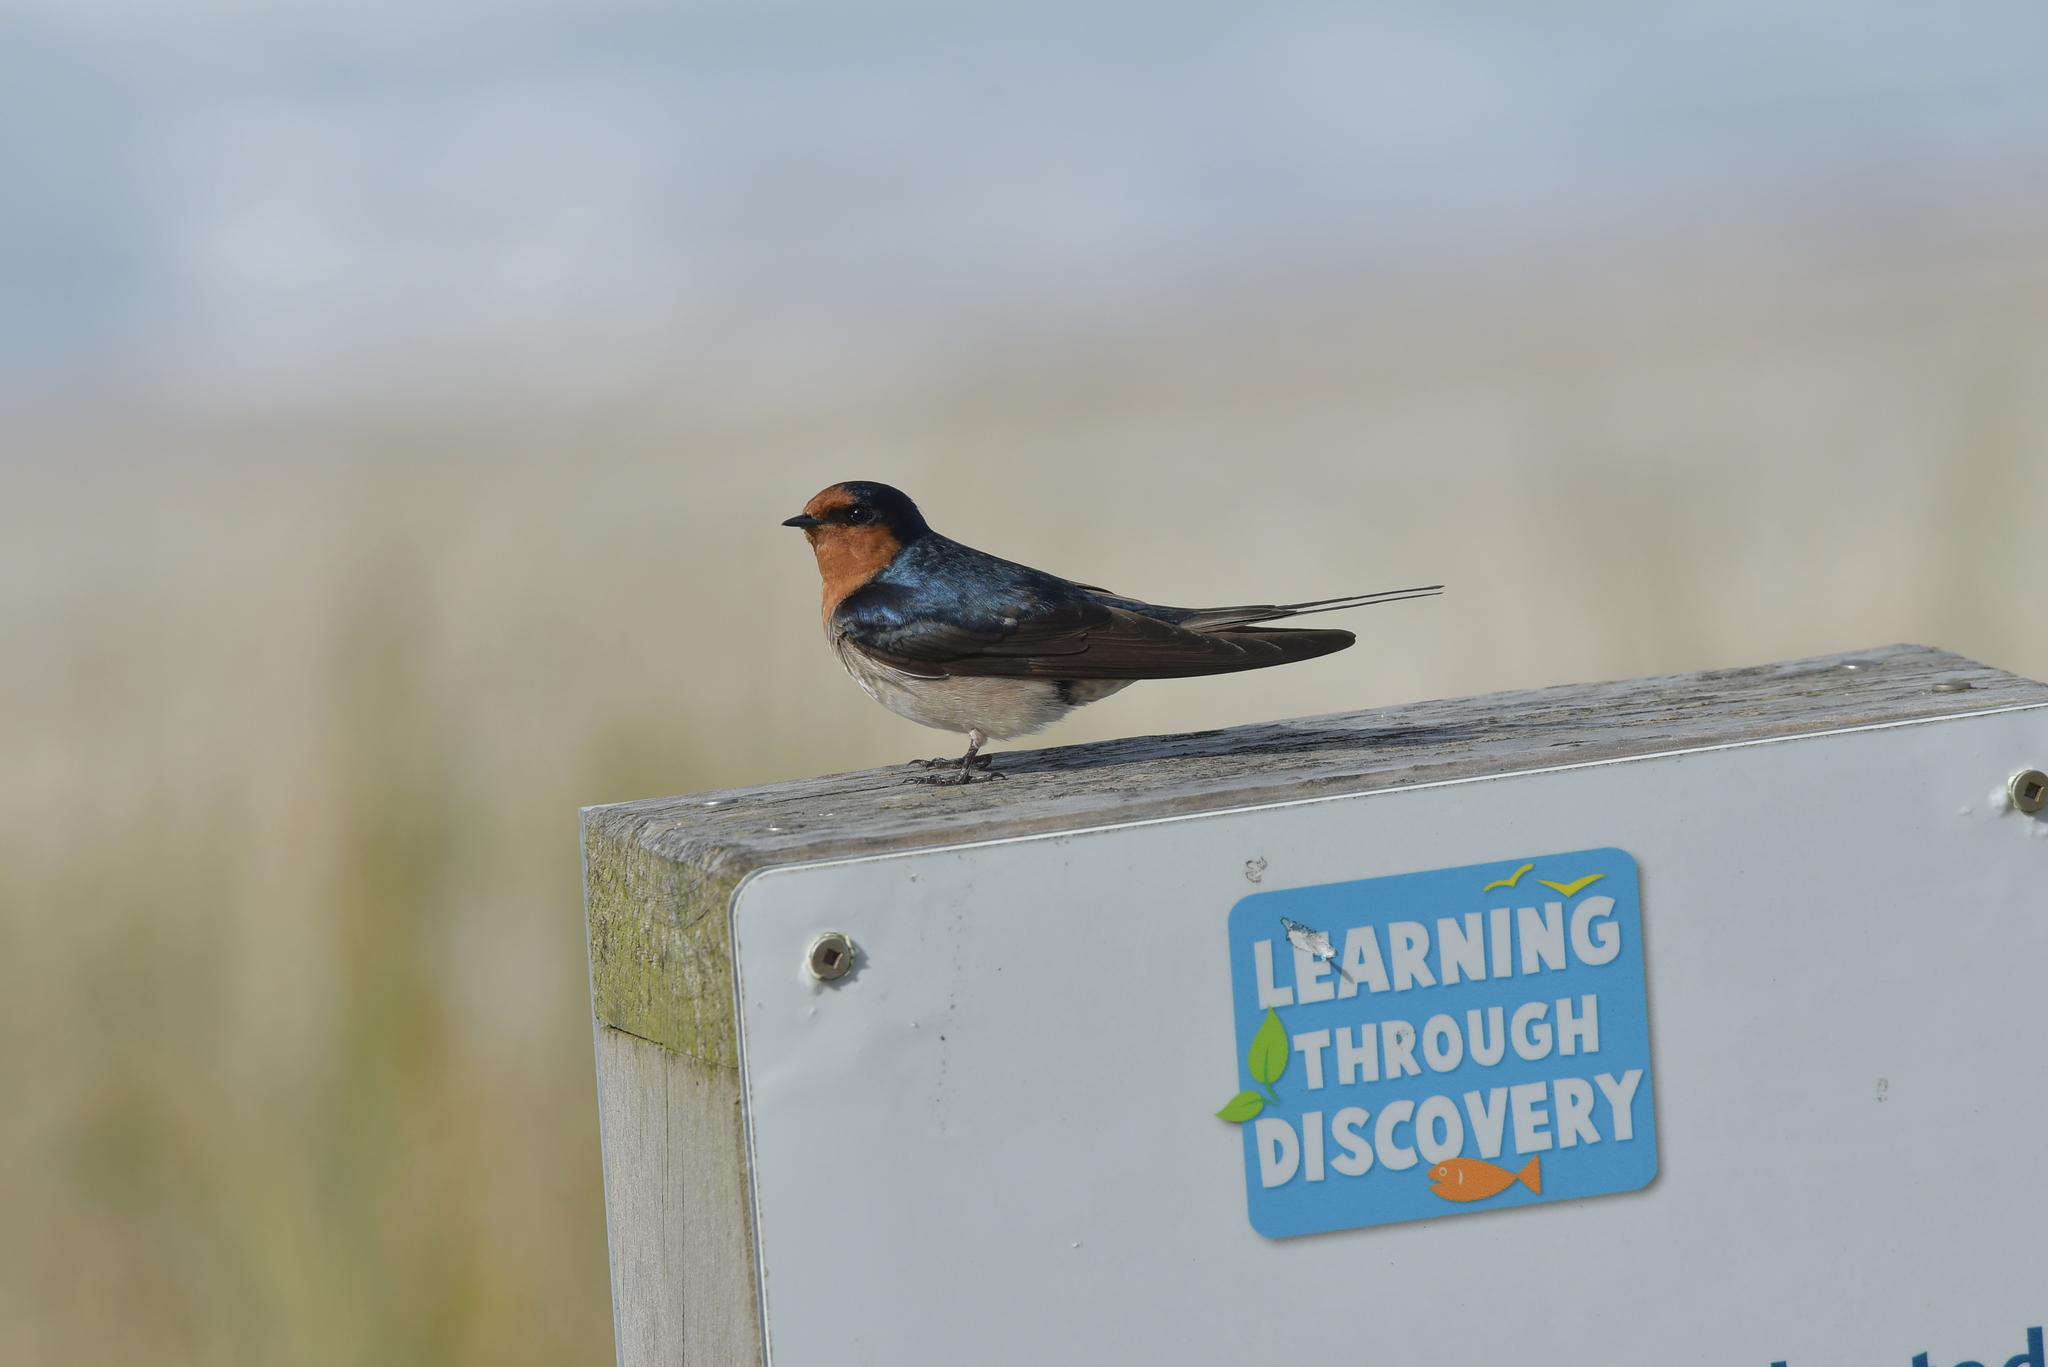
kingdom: Animalia
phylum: Chordata
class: Aves
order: Passeriformes
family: Hirundinidae
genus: Hirundo
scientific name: Hirundo neoxena
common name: Welcome swallow
